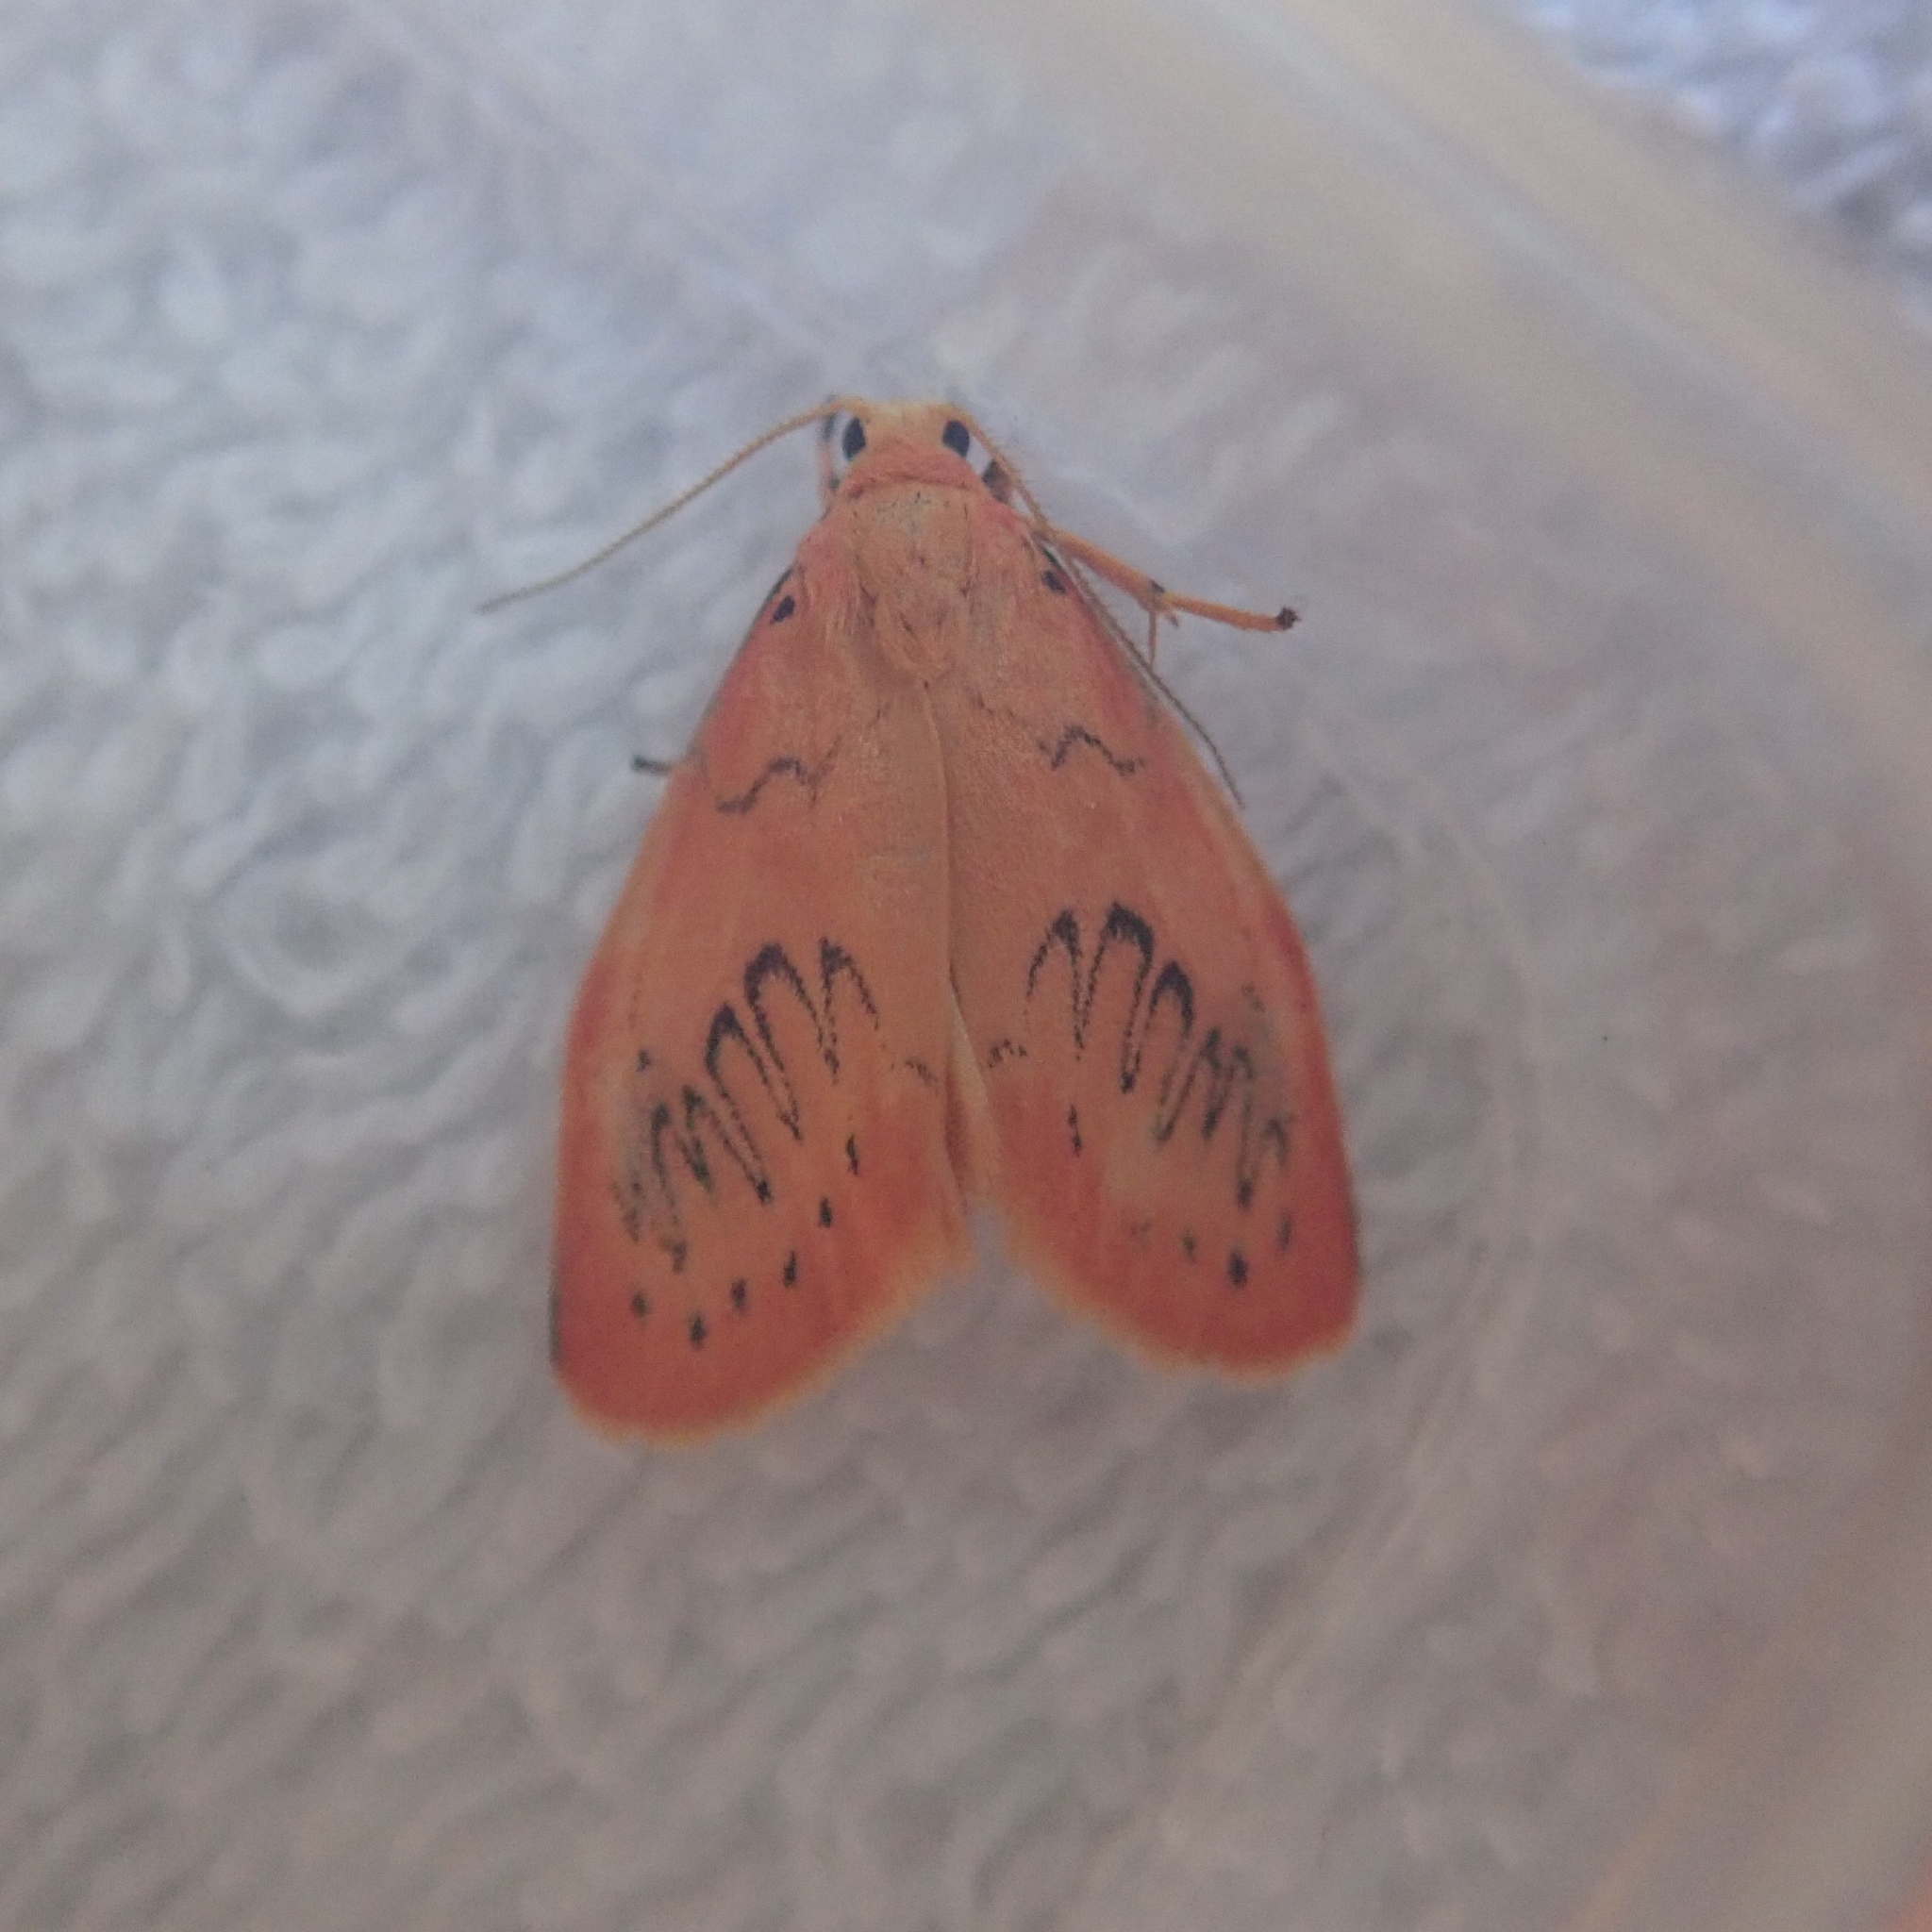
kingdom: Animalia
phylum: Arthropoda
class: Insecta
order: Lepidoptera
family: Erebidae
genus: Miltochrista
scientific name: Miltochrista miniata
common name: Rosy footman
